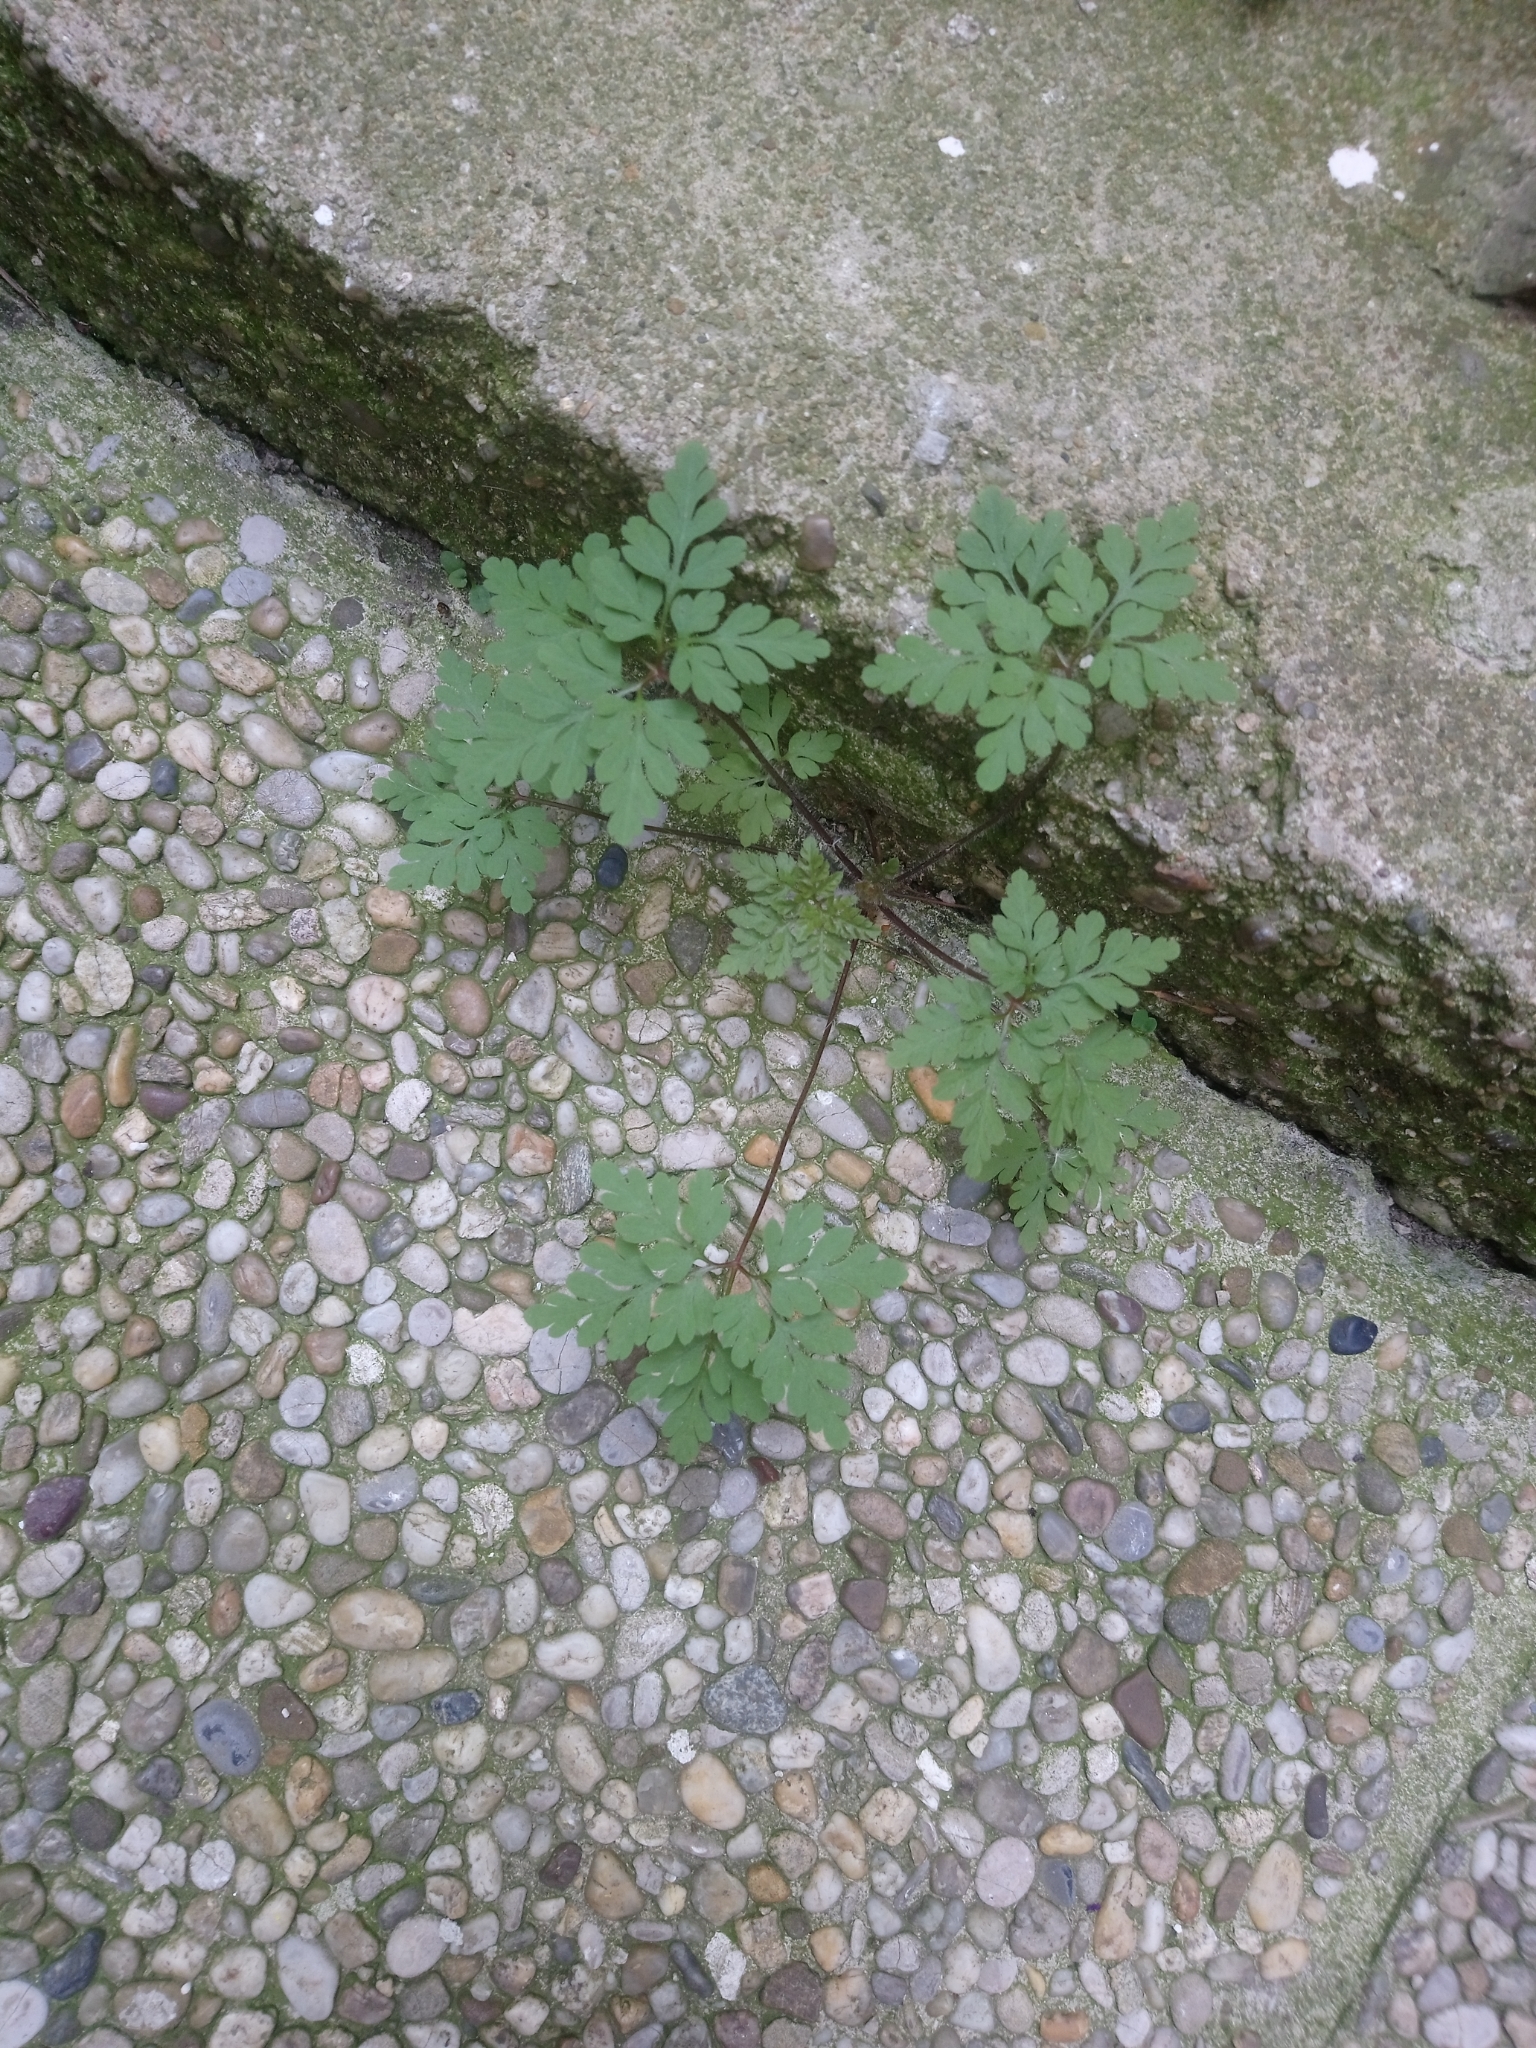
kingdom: Plantae
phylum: Tracheophyta
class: Magnoliopsida
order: Geraniales
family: Geraniaceae
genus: Geranium
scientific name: Geranium robertianum
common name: Herb-robert
